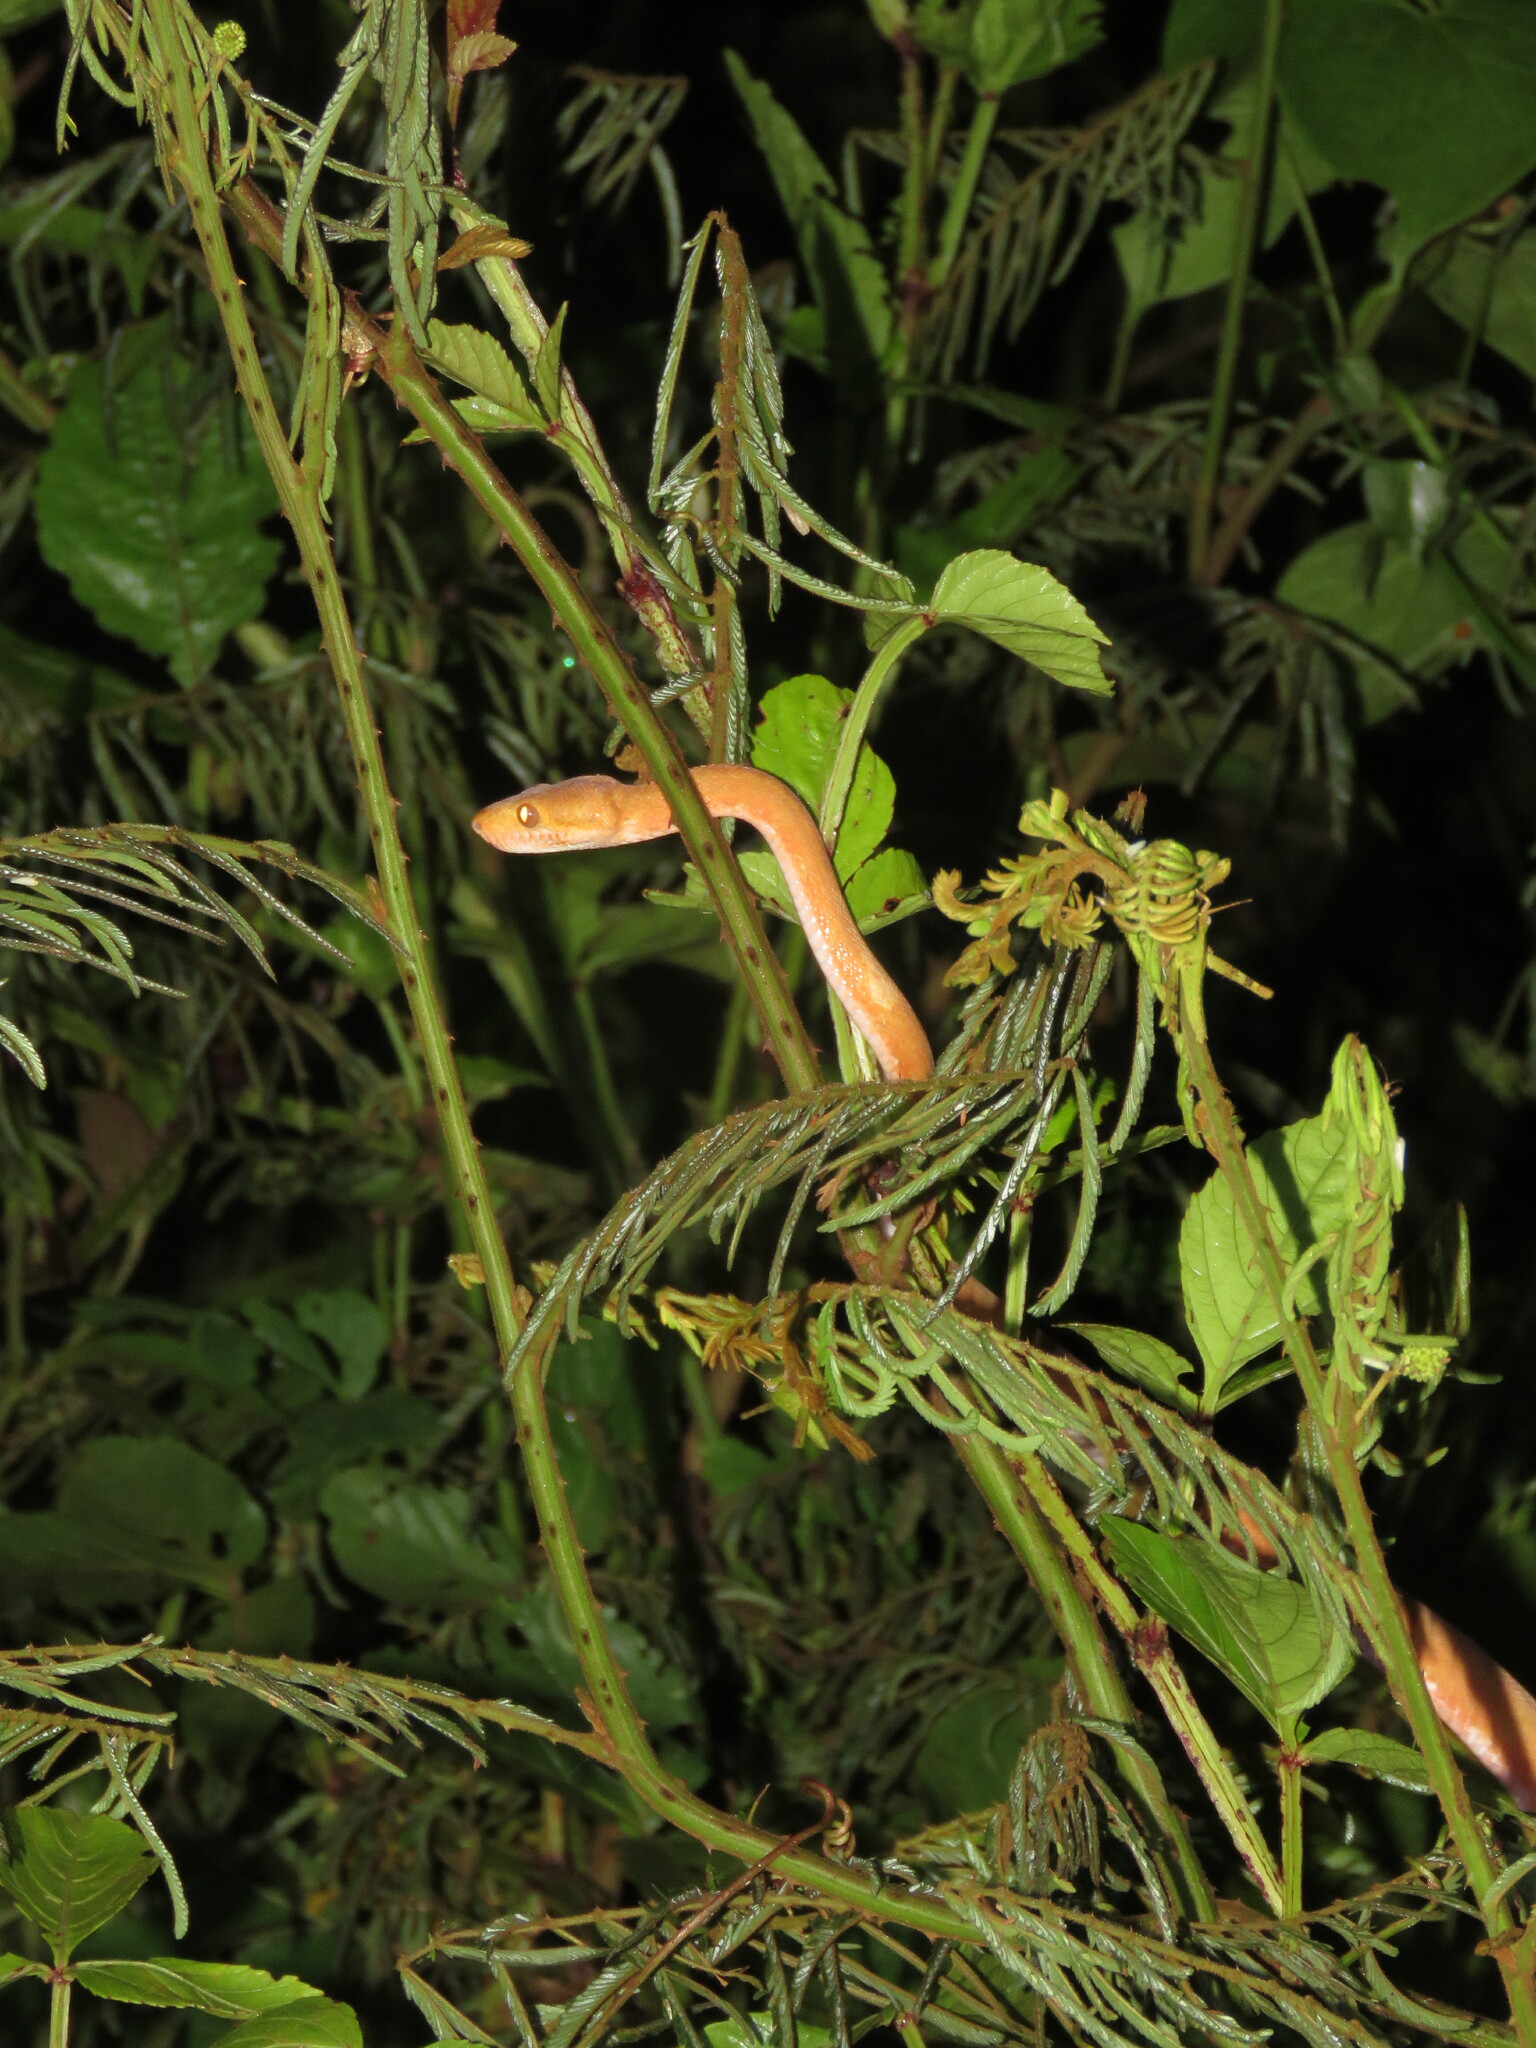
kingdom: Animalia
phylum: Chordata
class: Squamata
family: Boidae
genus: Corallus
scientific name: Corallus hortulana
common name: Garden tree boa
